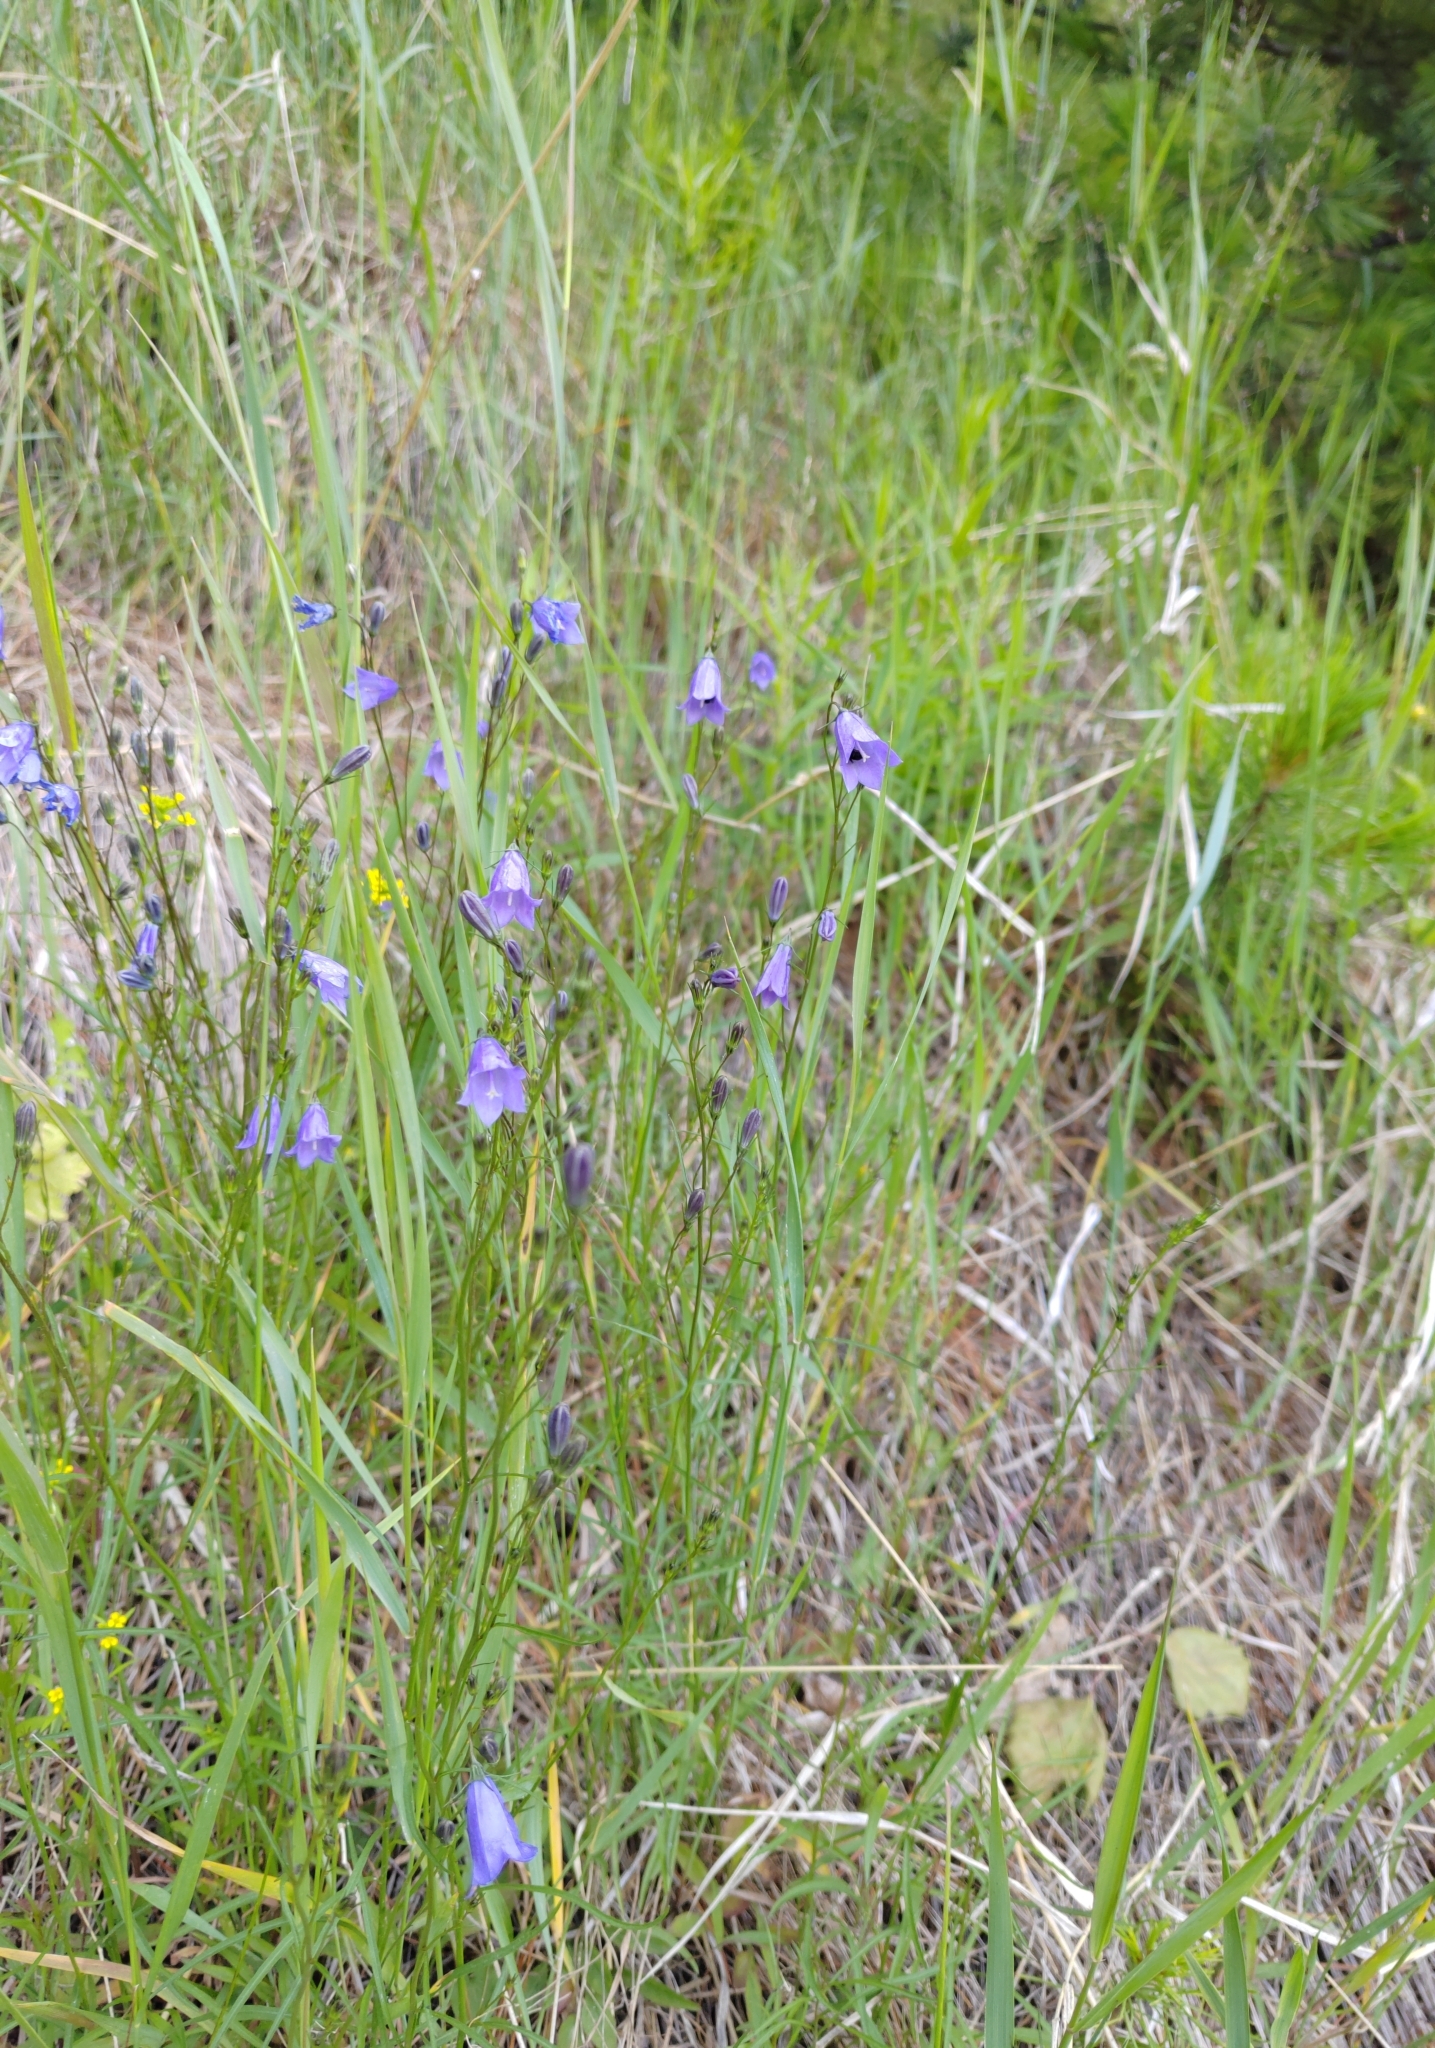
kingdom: Plantae
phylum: Tracheophyta
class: Magnoliopsida
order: Asterales
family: Campanulaceae
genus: Campanula
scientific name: Campanula rotundifolia
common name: Harebell
